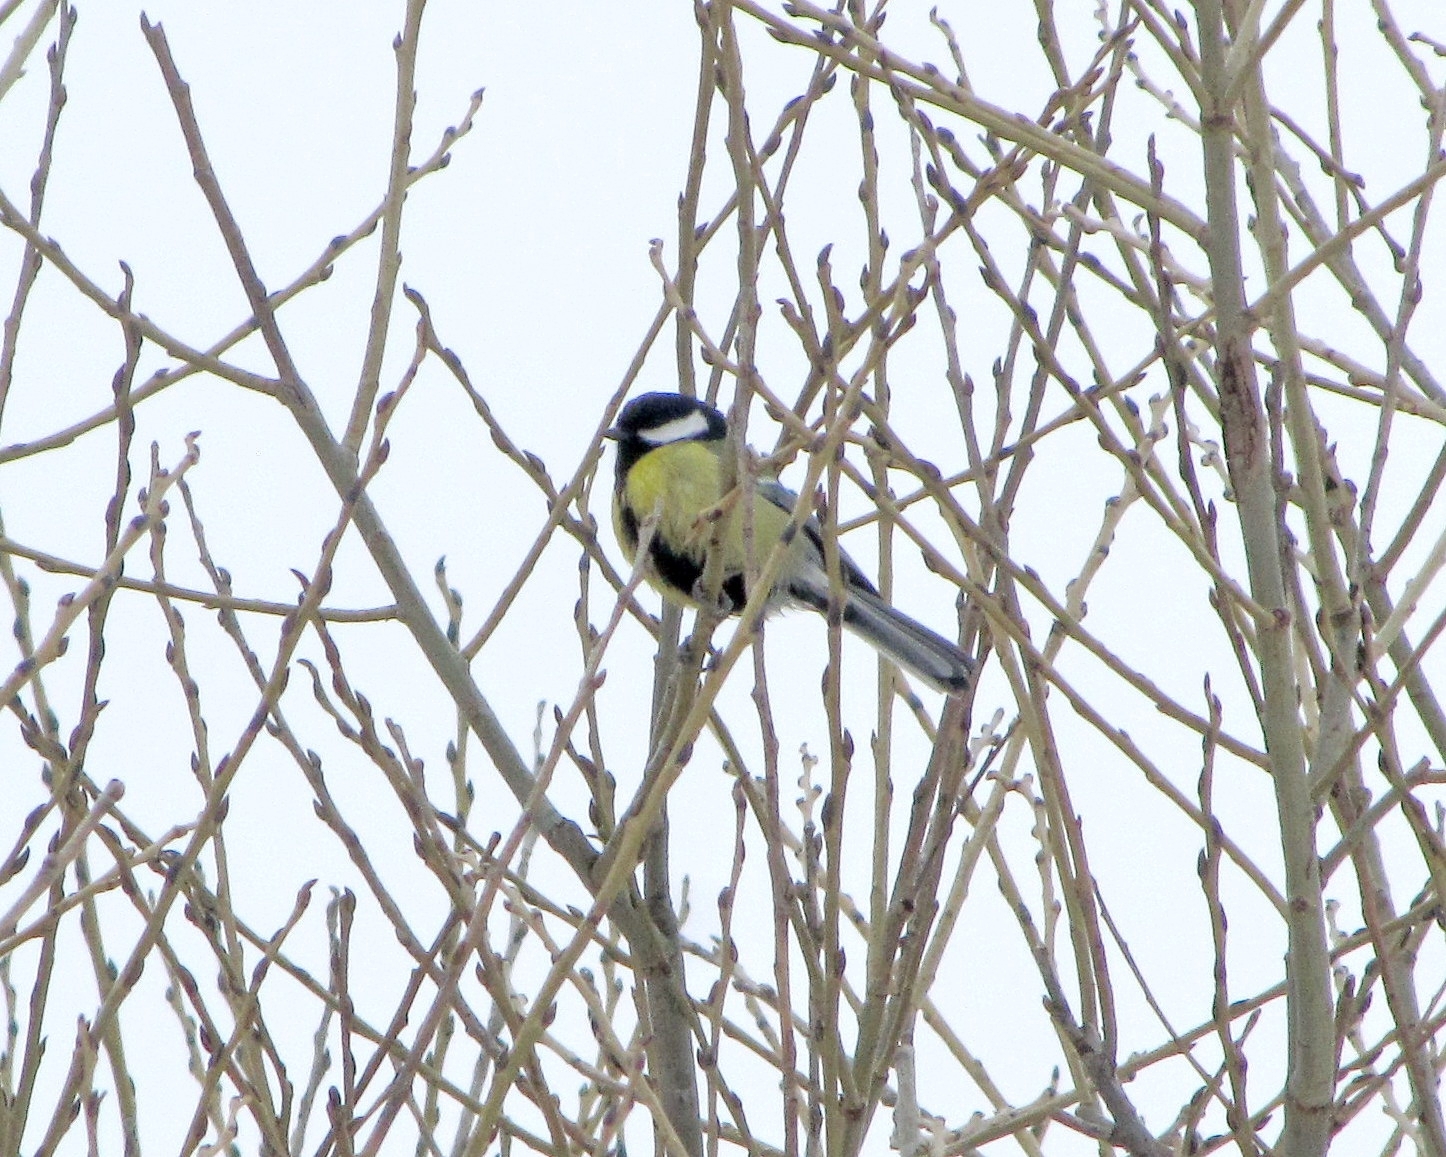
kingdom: Animalia
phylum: Chordata
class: Aves
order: Passeriformes
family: Paridae
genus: Parus
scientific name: Parus major
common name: Great tit
